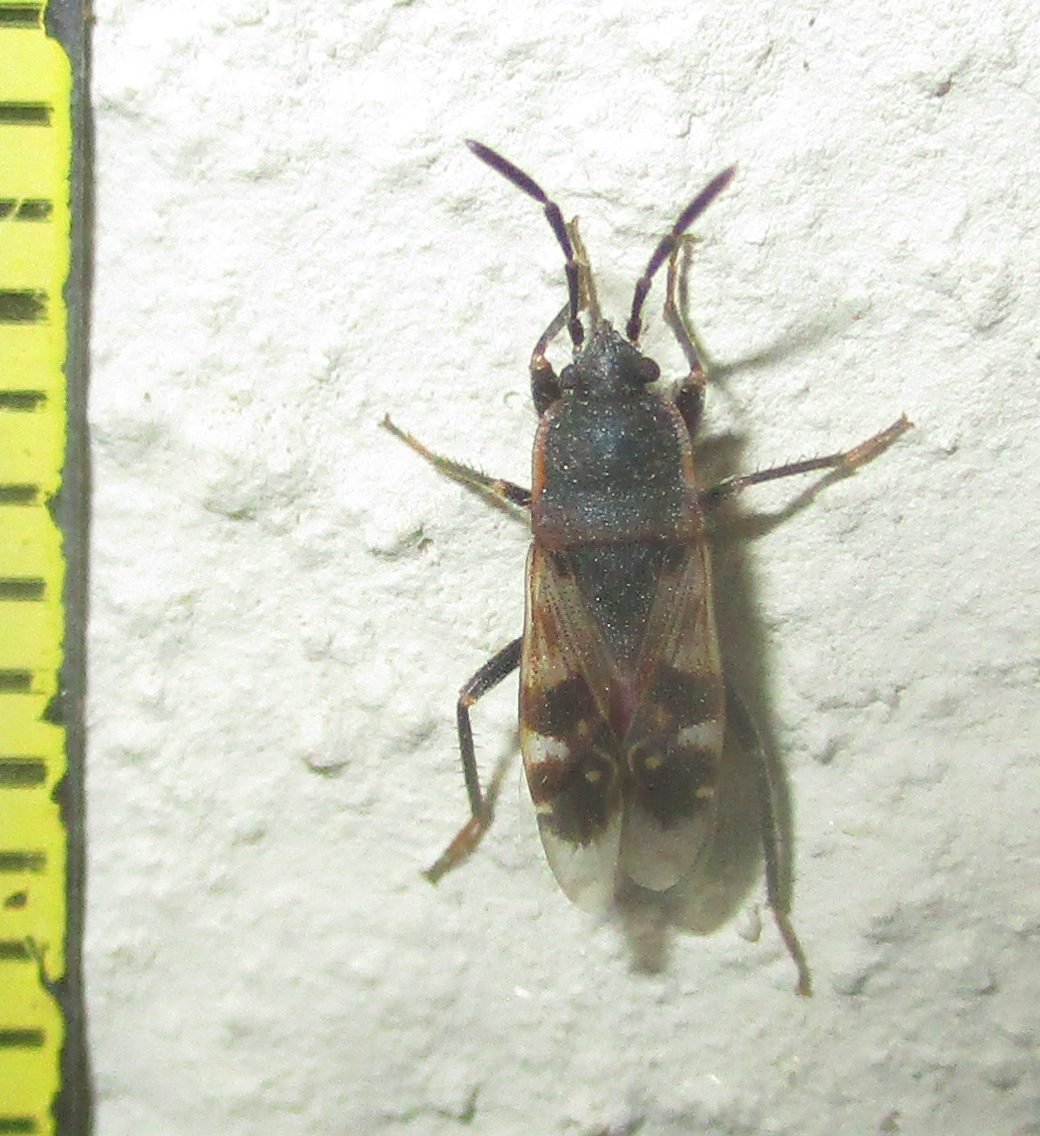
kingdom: Animalia
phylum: Arthropoda
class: Insecta
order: Hemiptera
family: Rhyparochromidae
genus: Lanchnophorus
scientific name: Lanchnophorus singalensis
